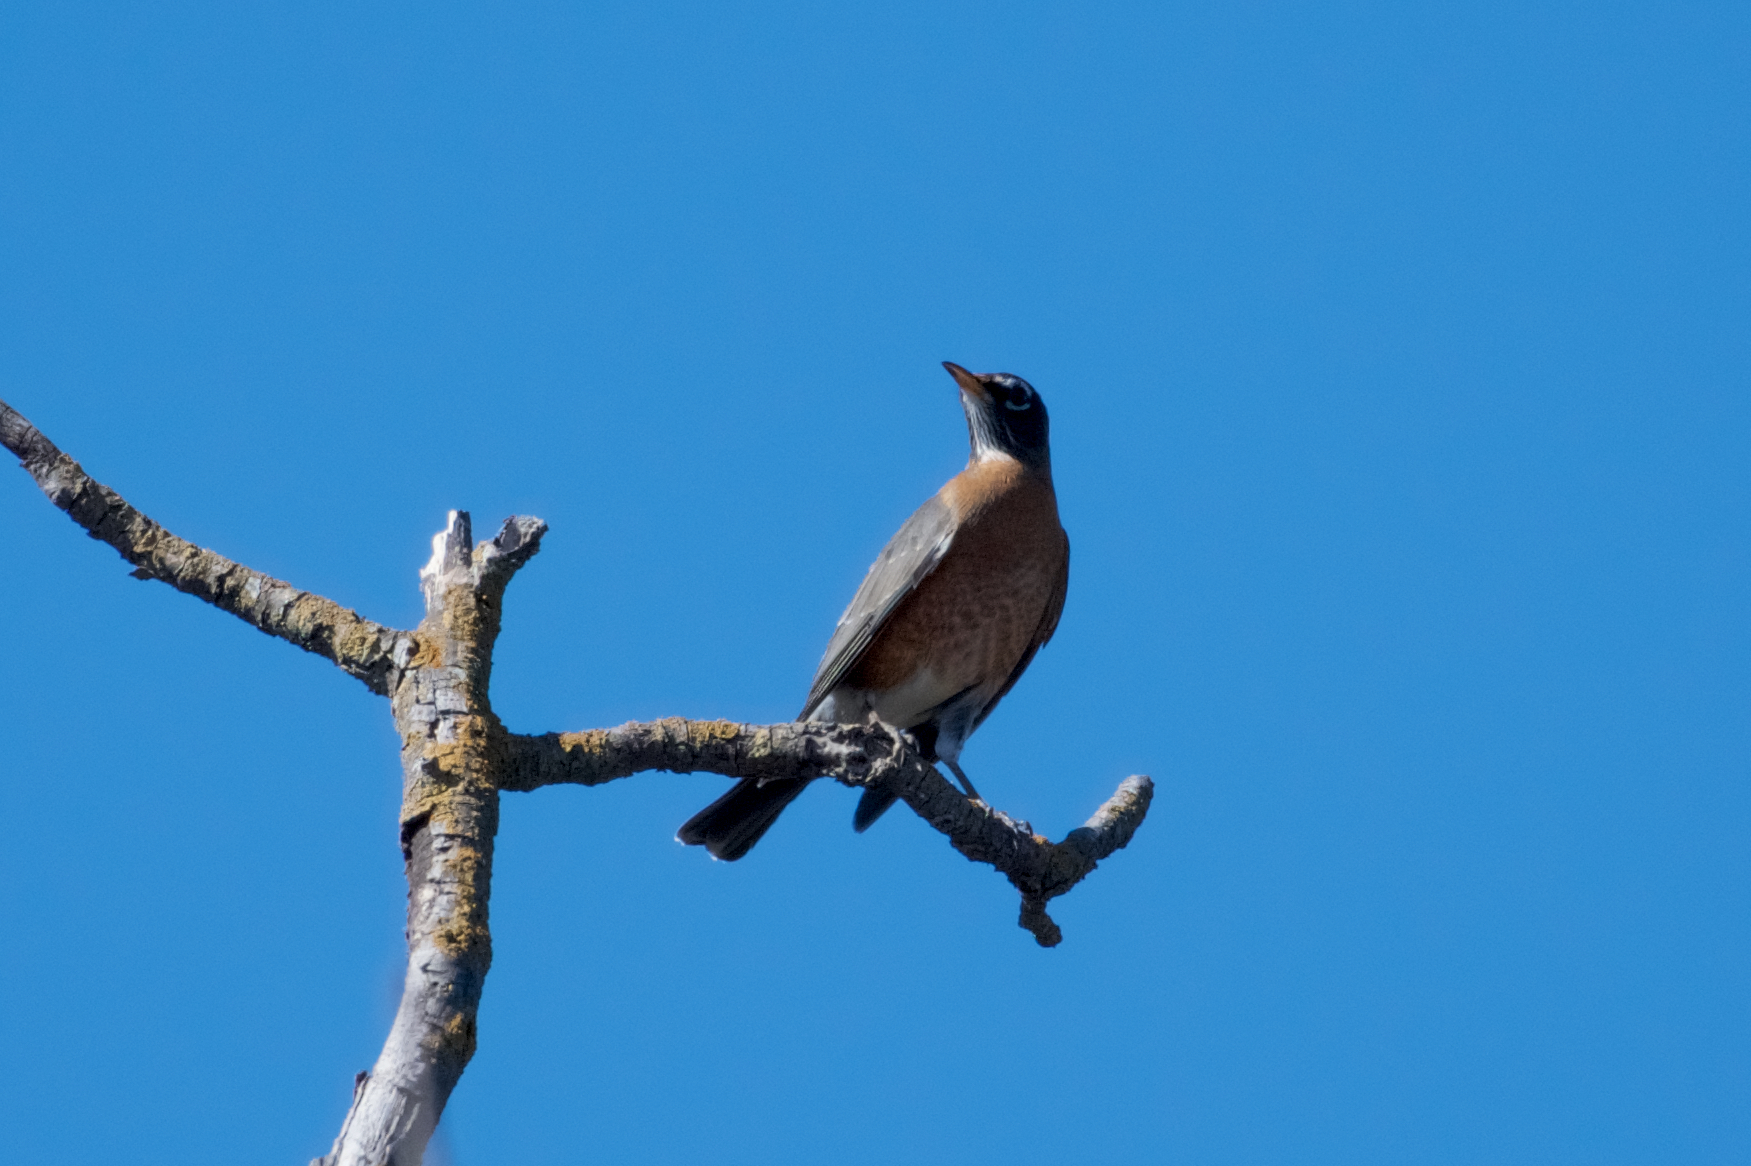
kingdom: Animalia
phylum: Chordata
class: Aves
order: Passeriformes
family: Turdidae
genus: Turdus
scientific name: Turdus migratorius
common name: American robin
